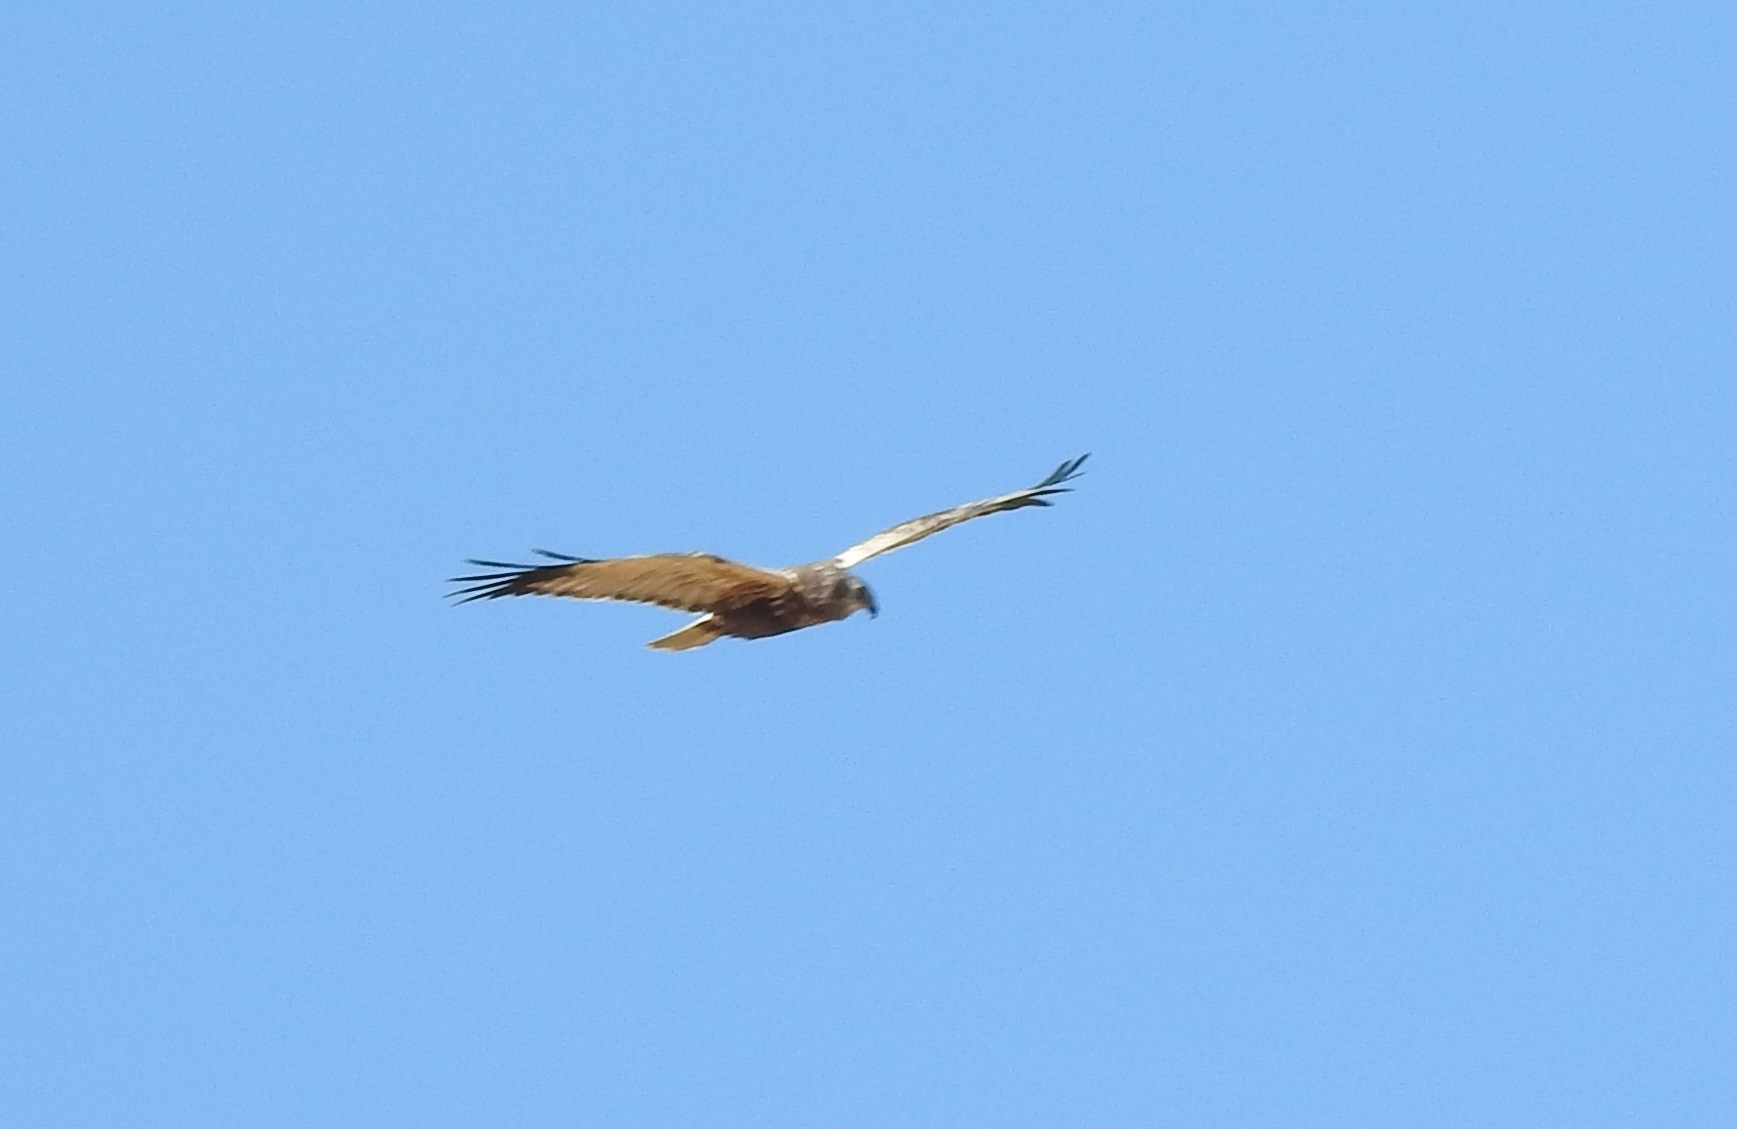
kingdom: Animalia
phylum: Chordata
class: Aves
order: Accipitriformes
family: Accipitridae
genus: Circus
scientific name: Circus aeruginosus
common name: Western marsh harrier
